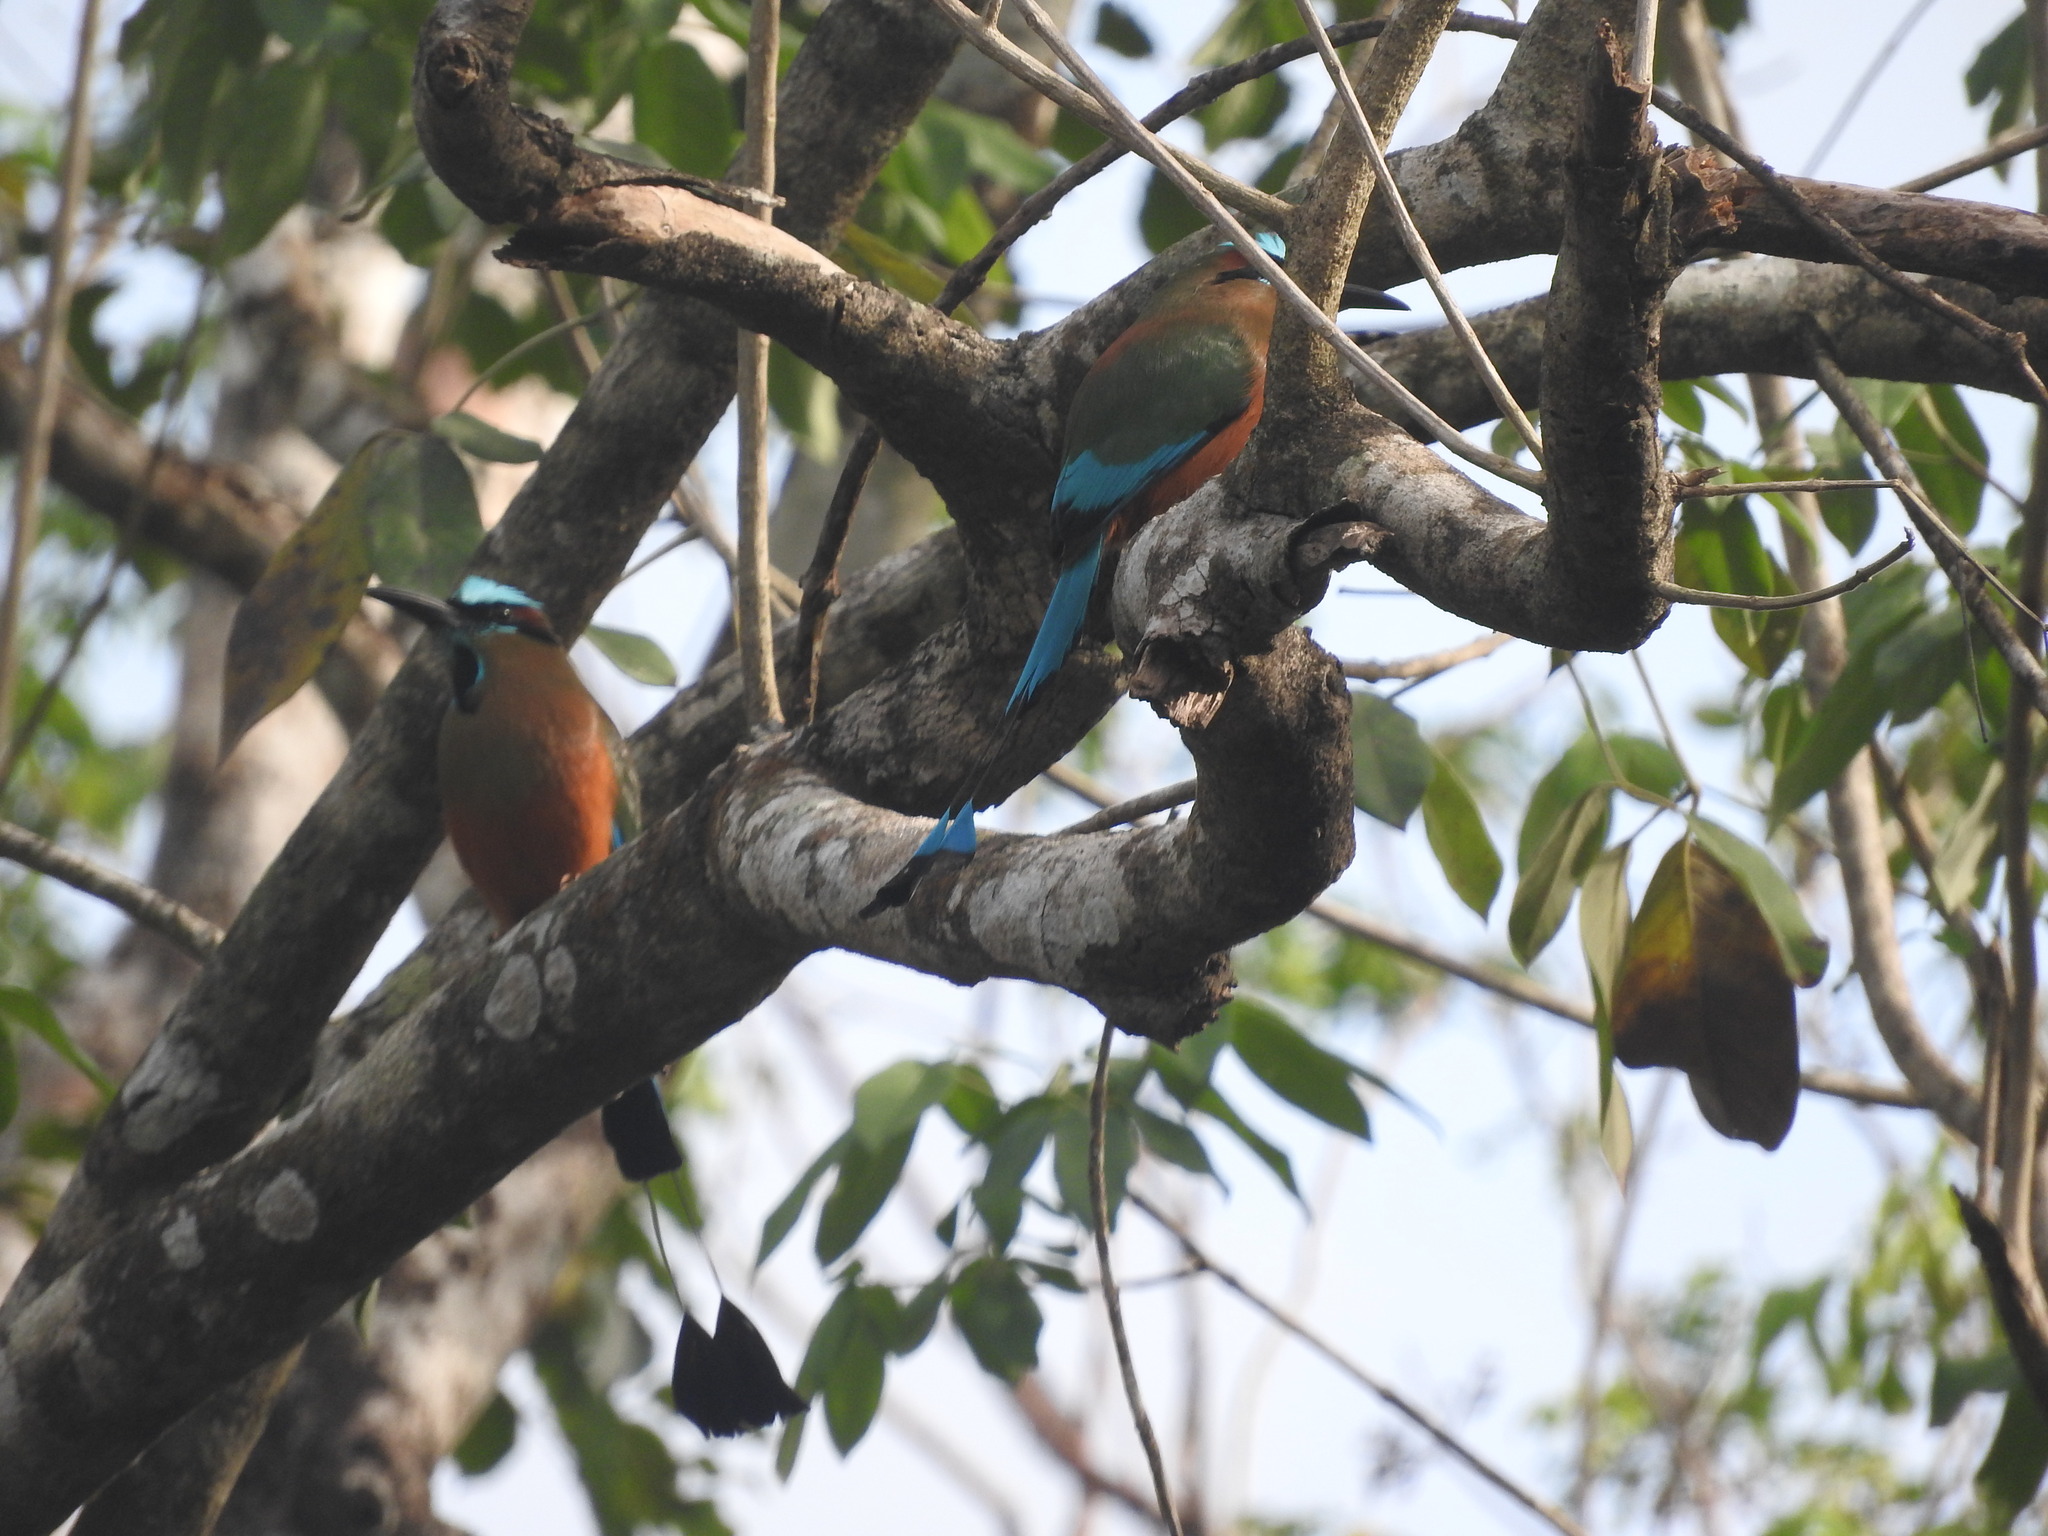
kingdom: Animalia
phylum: Chordata
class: Aves
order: Coraciiformes
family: Momotidae
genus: Eumomota
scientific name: Eumomota superciliosa
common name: Turquoise-browed motmot
